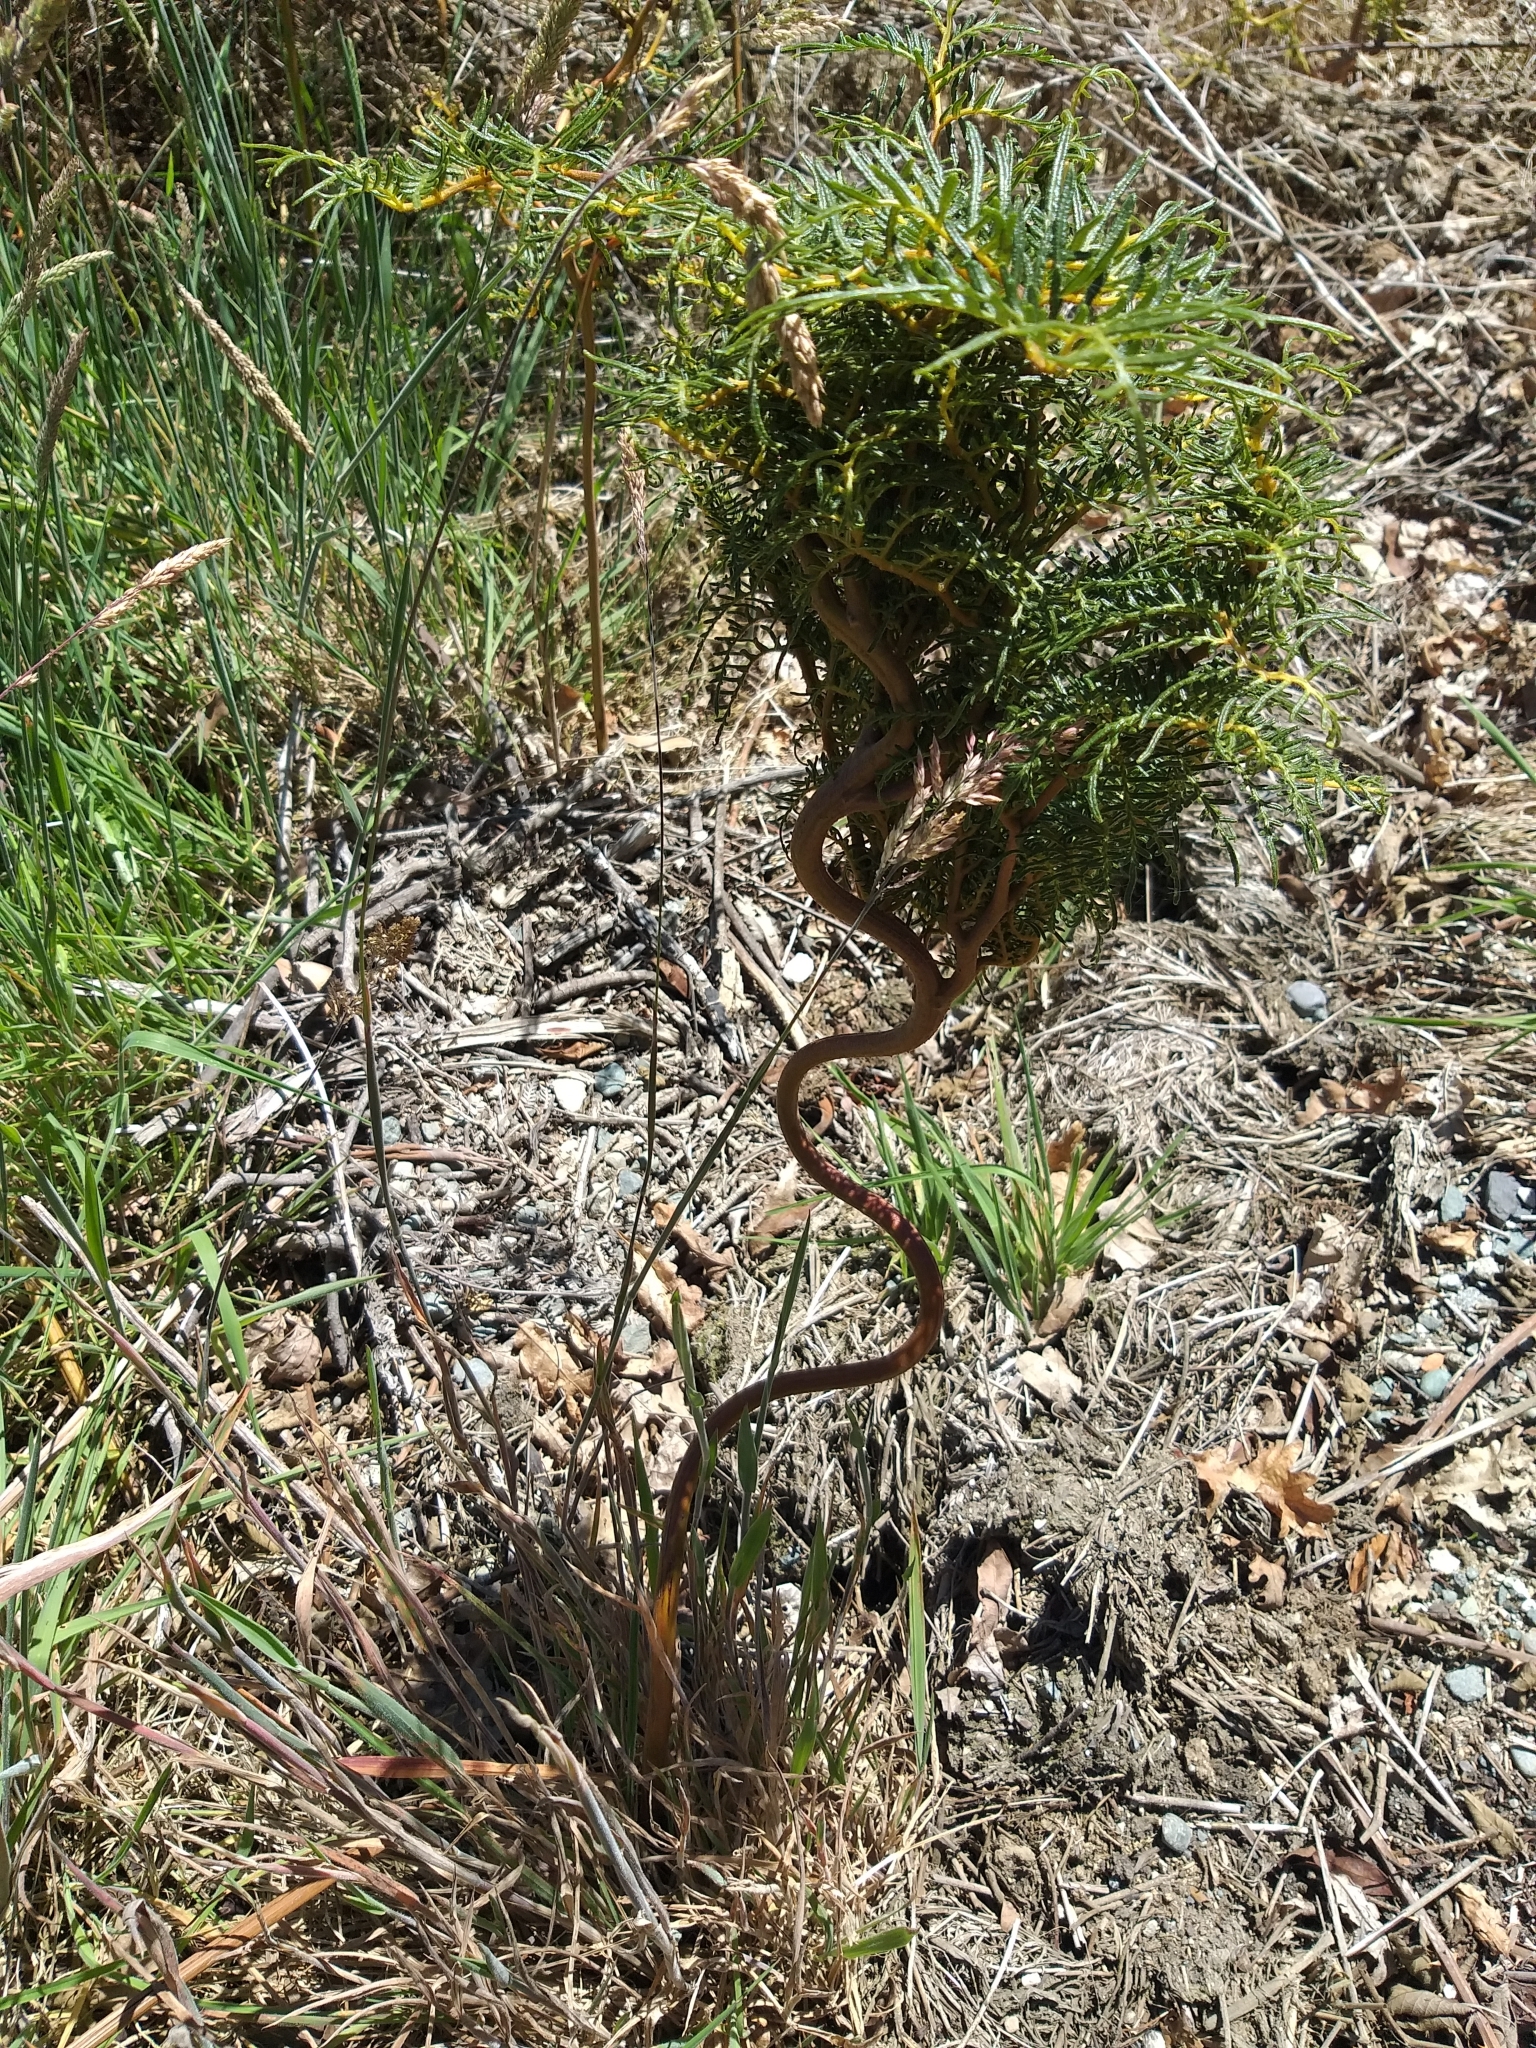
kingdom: Plantae
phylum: Tracheophyta
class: Magnoliopsida
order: Asterales
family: Asteraceae
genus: Olearia
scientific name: Olearia crosby-smithiana
